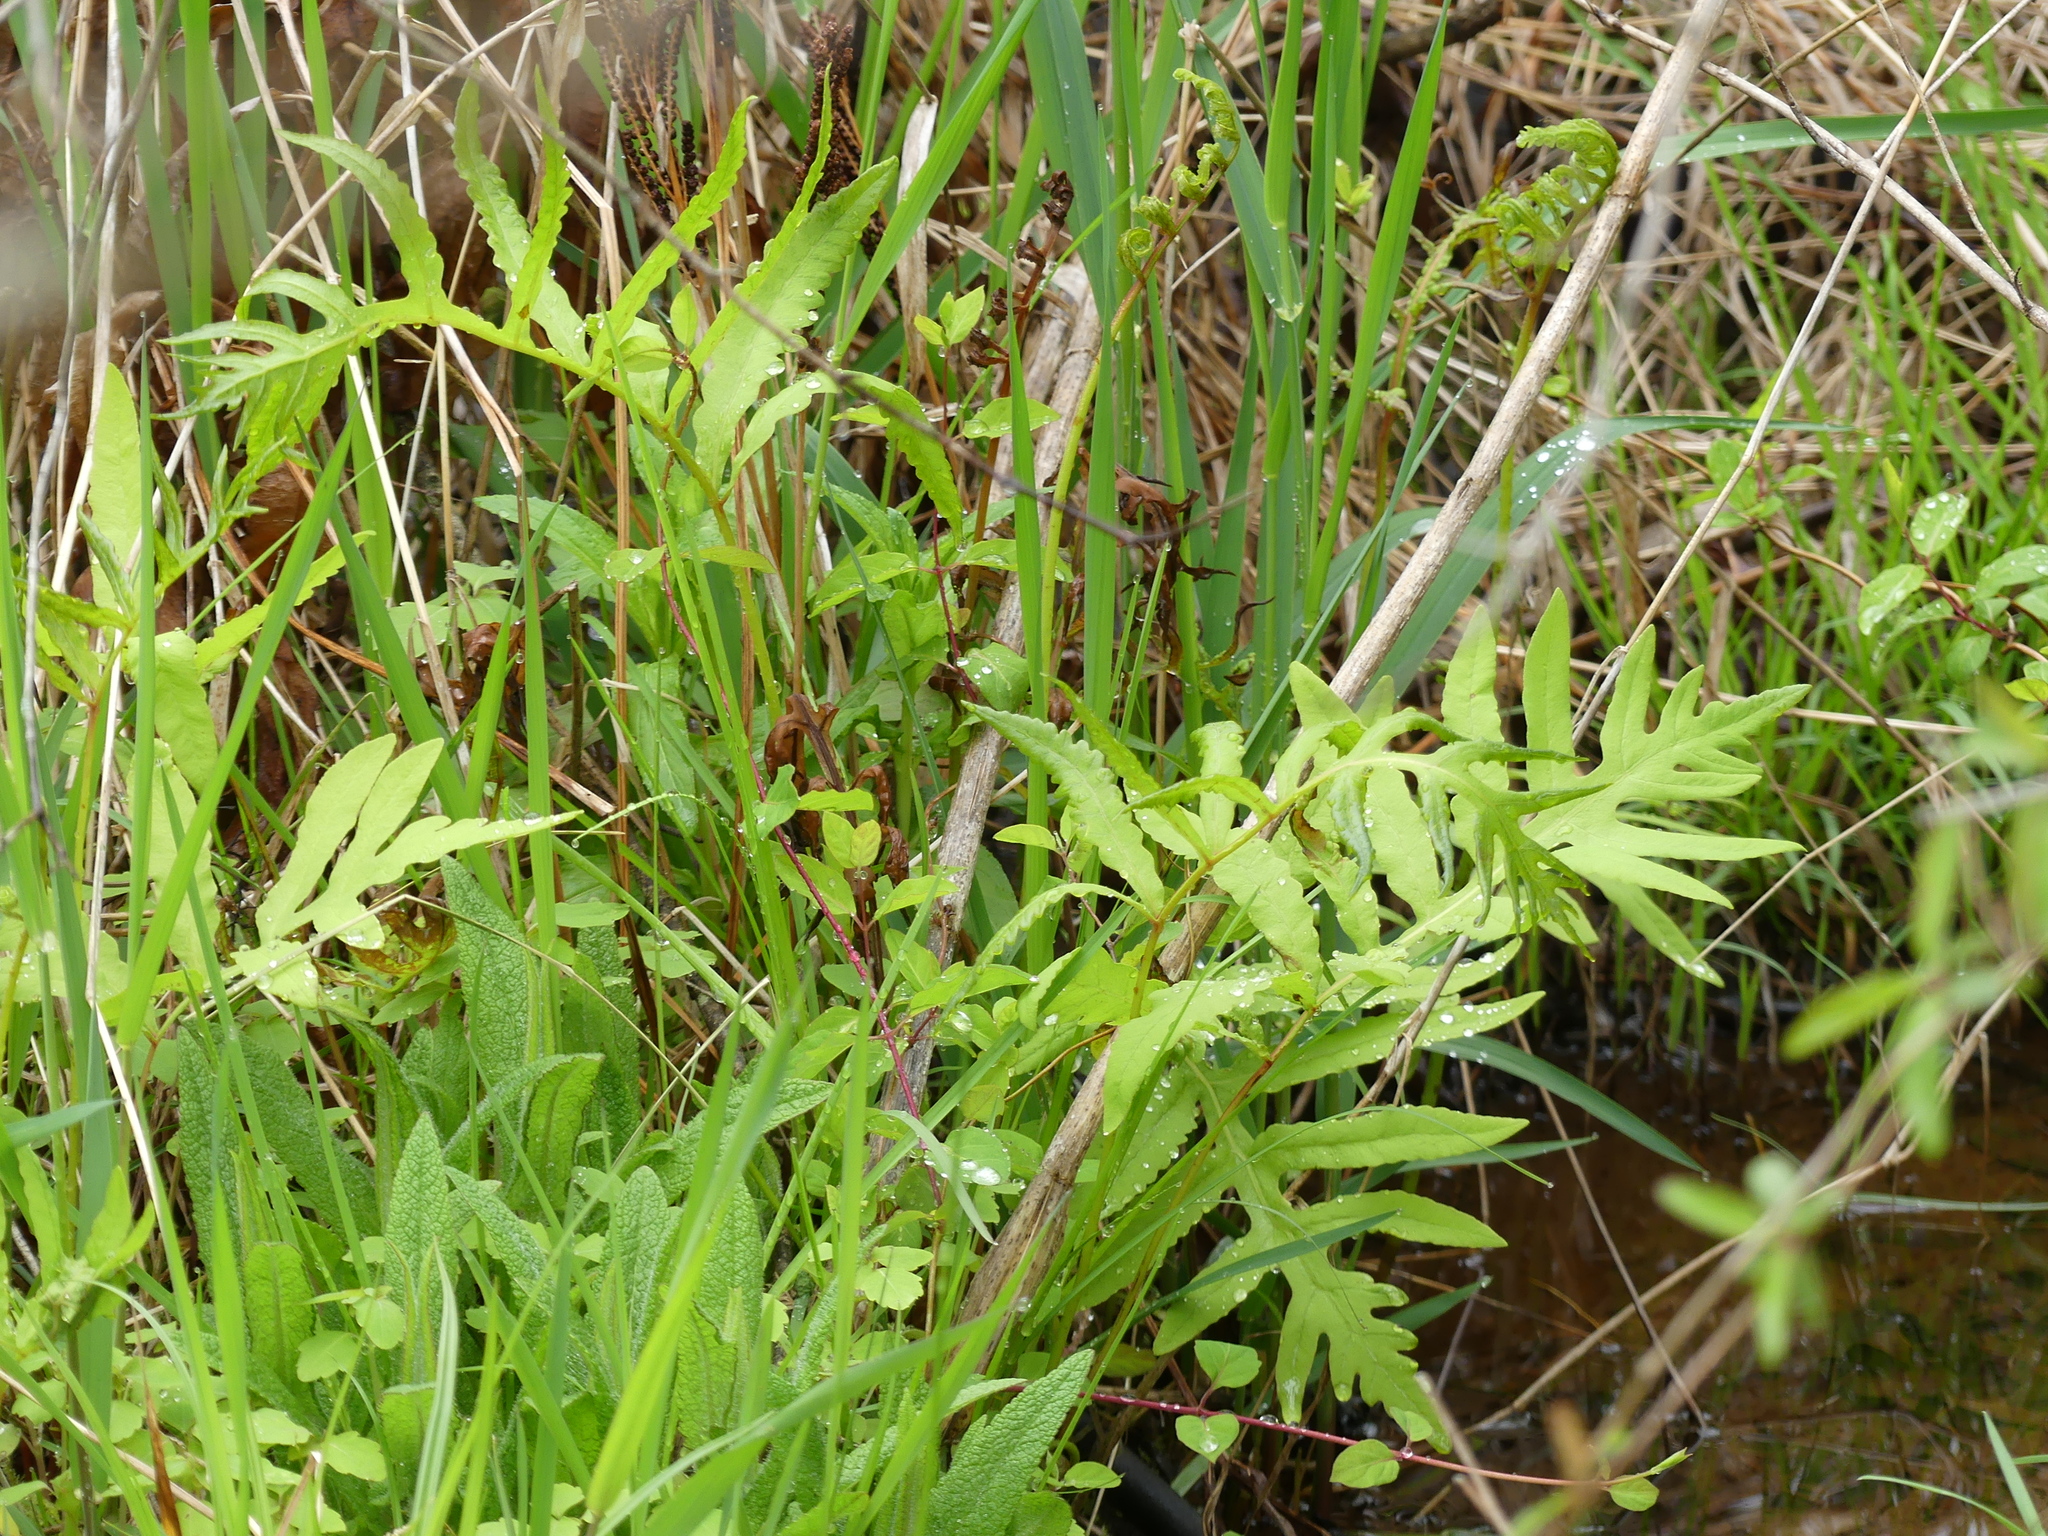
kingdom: Plantae
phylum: Tracheophyta
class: Polypodiopsida
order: Polypodiales
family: Onocleaceae
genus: Onoclea
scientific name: Onoclea sensibilis
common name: Sensitive fern
